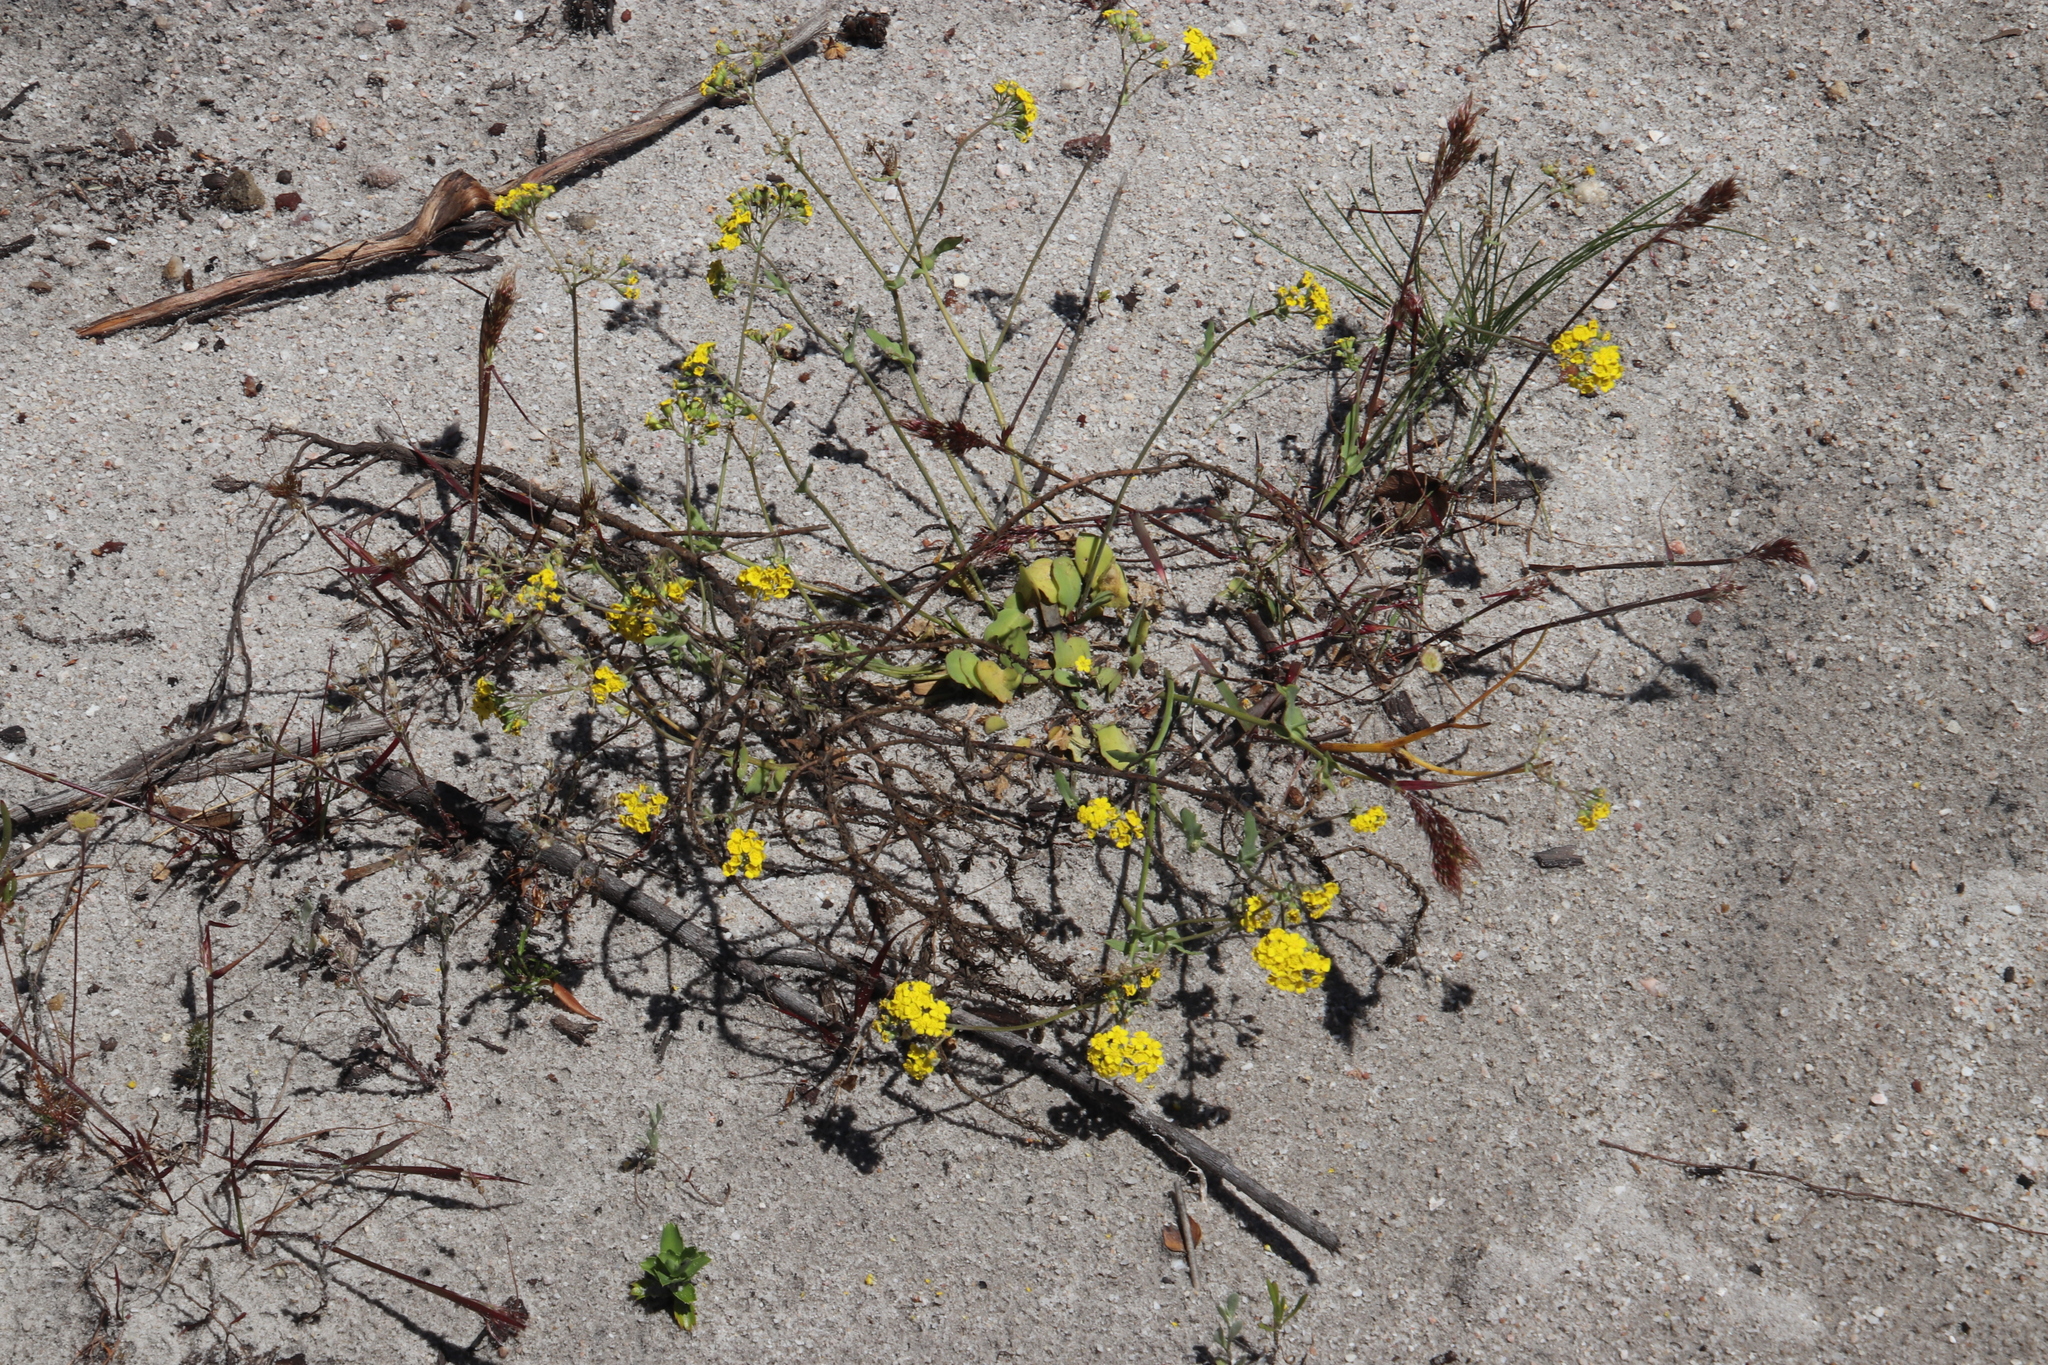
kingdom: Plantae
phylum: Tracheophyta
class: Magnoliopsida
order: Asterales
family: Asteraceae
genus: Gymnodiscus
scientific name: Gymnodiscus capillaris
